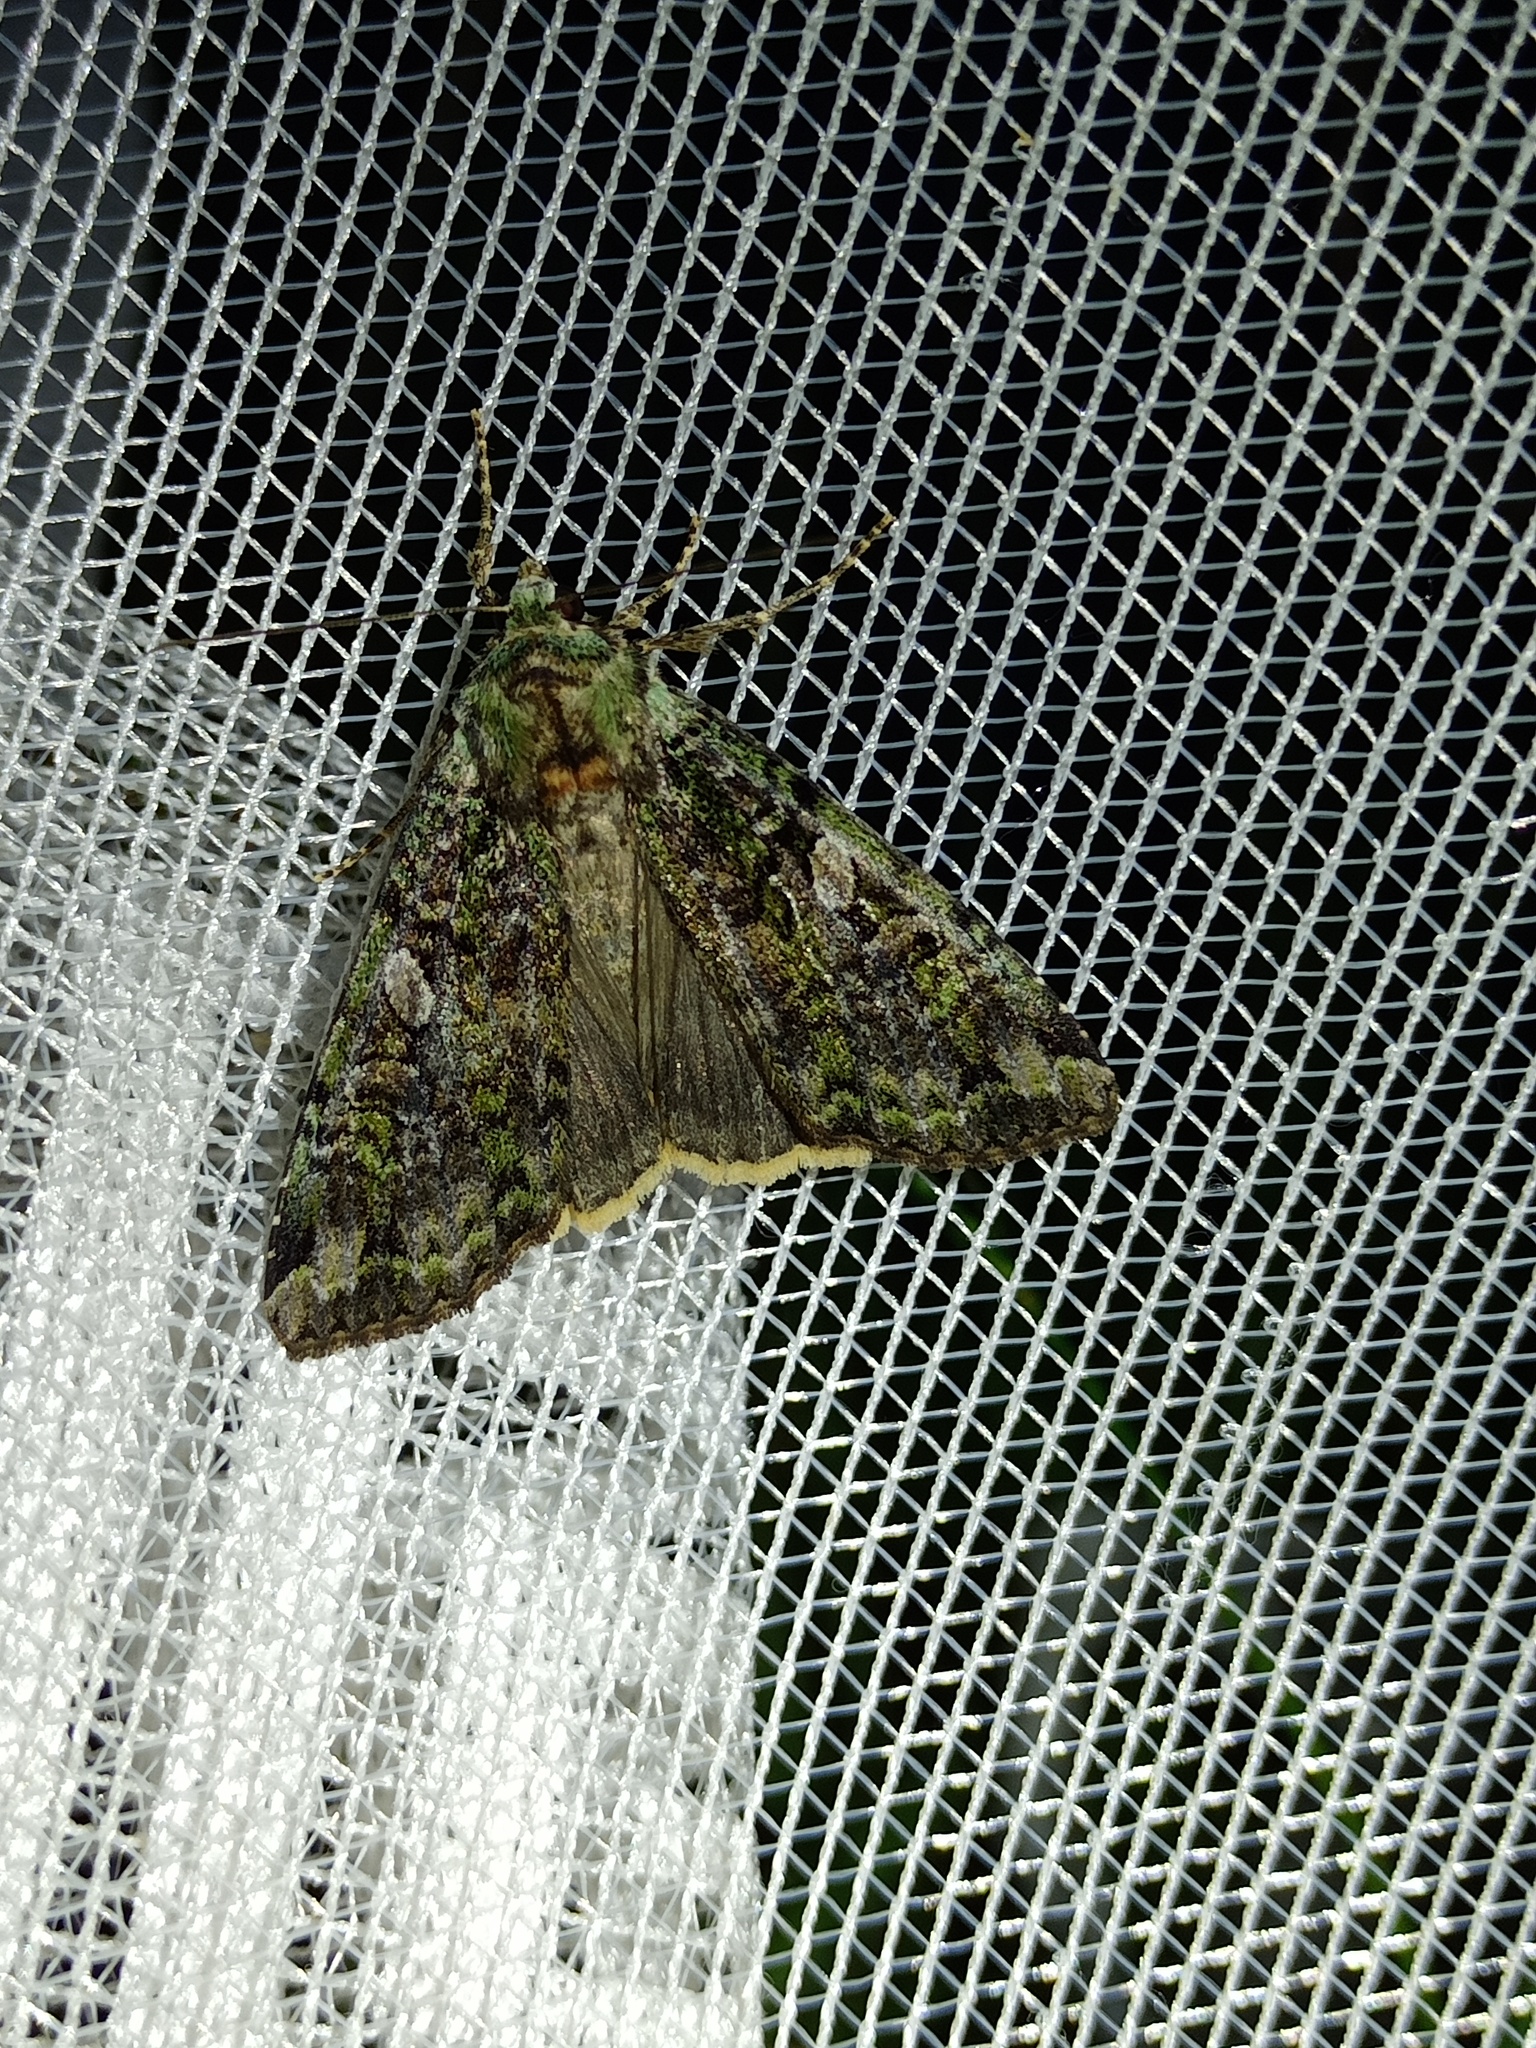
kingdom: Animalia
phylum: Arthropoda
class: Insecta
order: Lepidoptera
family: Noctuidae
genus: Anaplectoides
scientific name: Anaplectoides prasina
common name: Green arches
